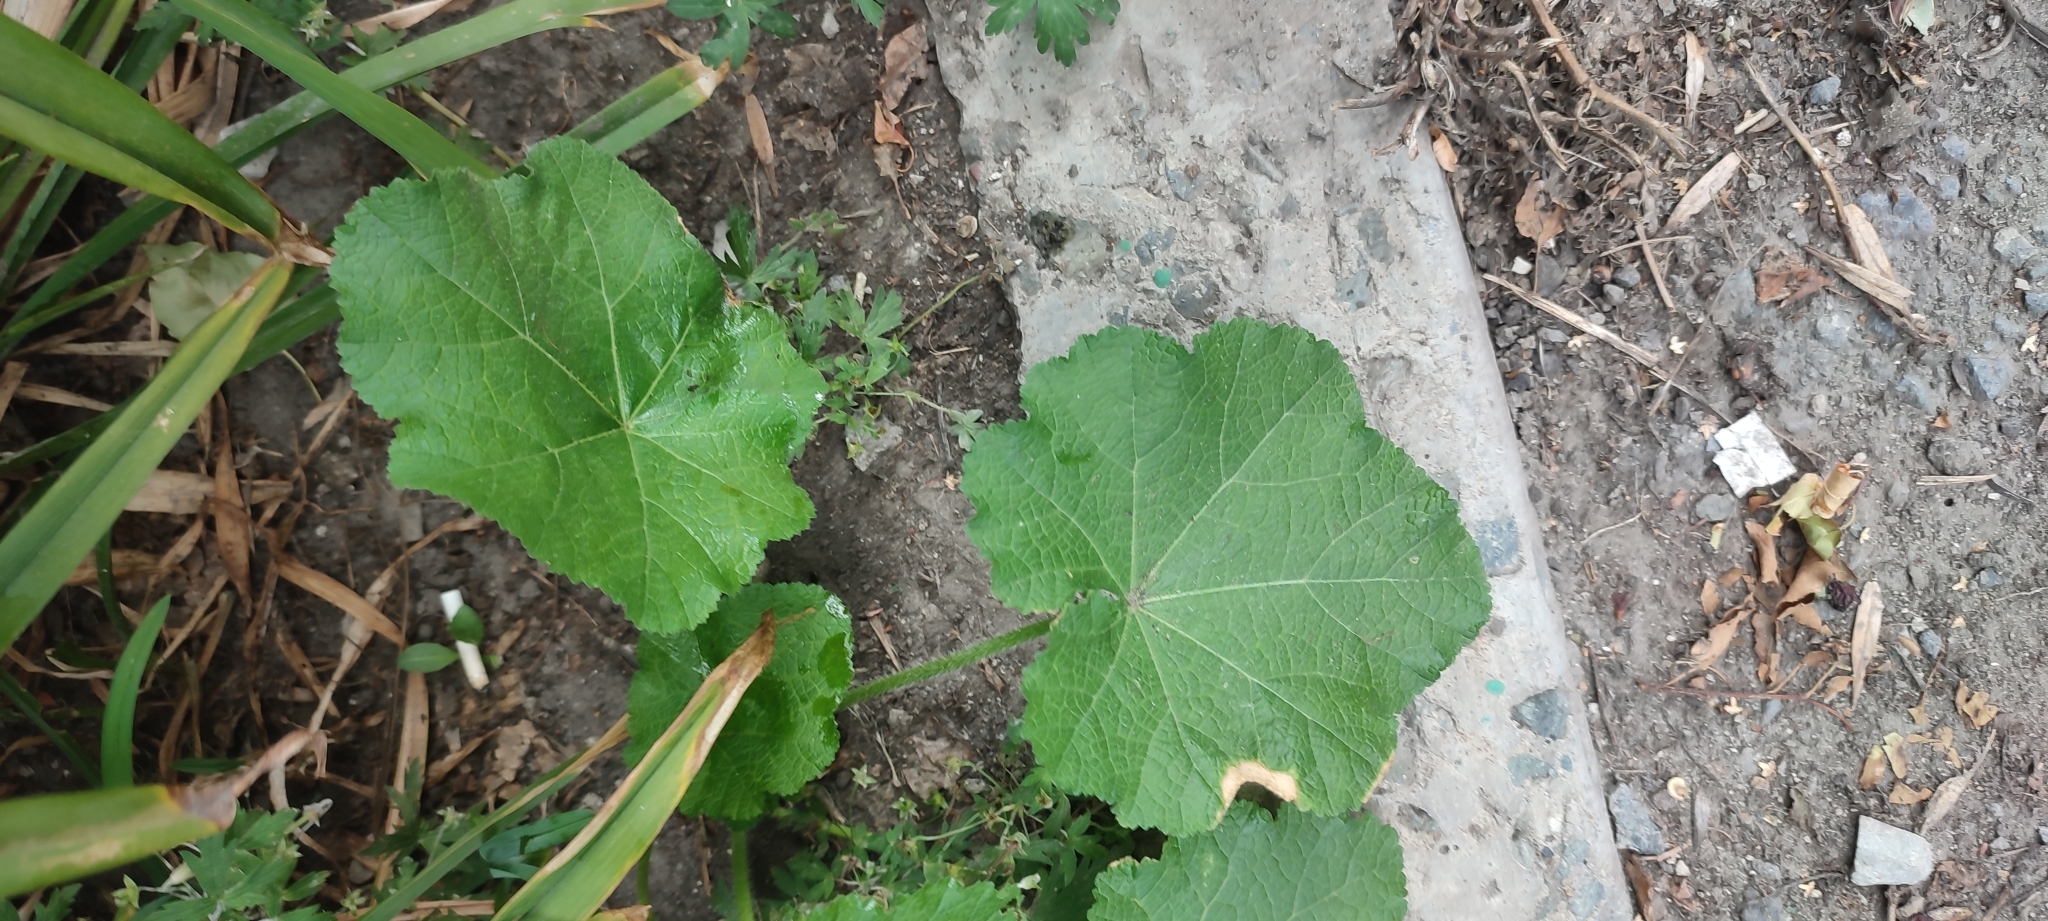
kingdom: Plantae
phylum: Tracheophyta
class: Magnoliopsida
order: Malvales
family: Malvaceae
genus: Alcea
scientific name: Alcea rosea
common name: Hollyhock
